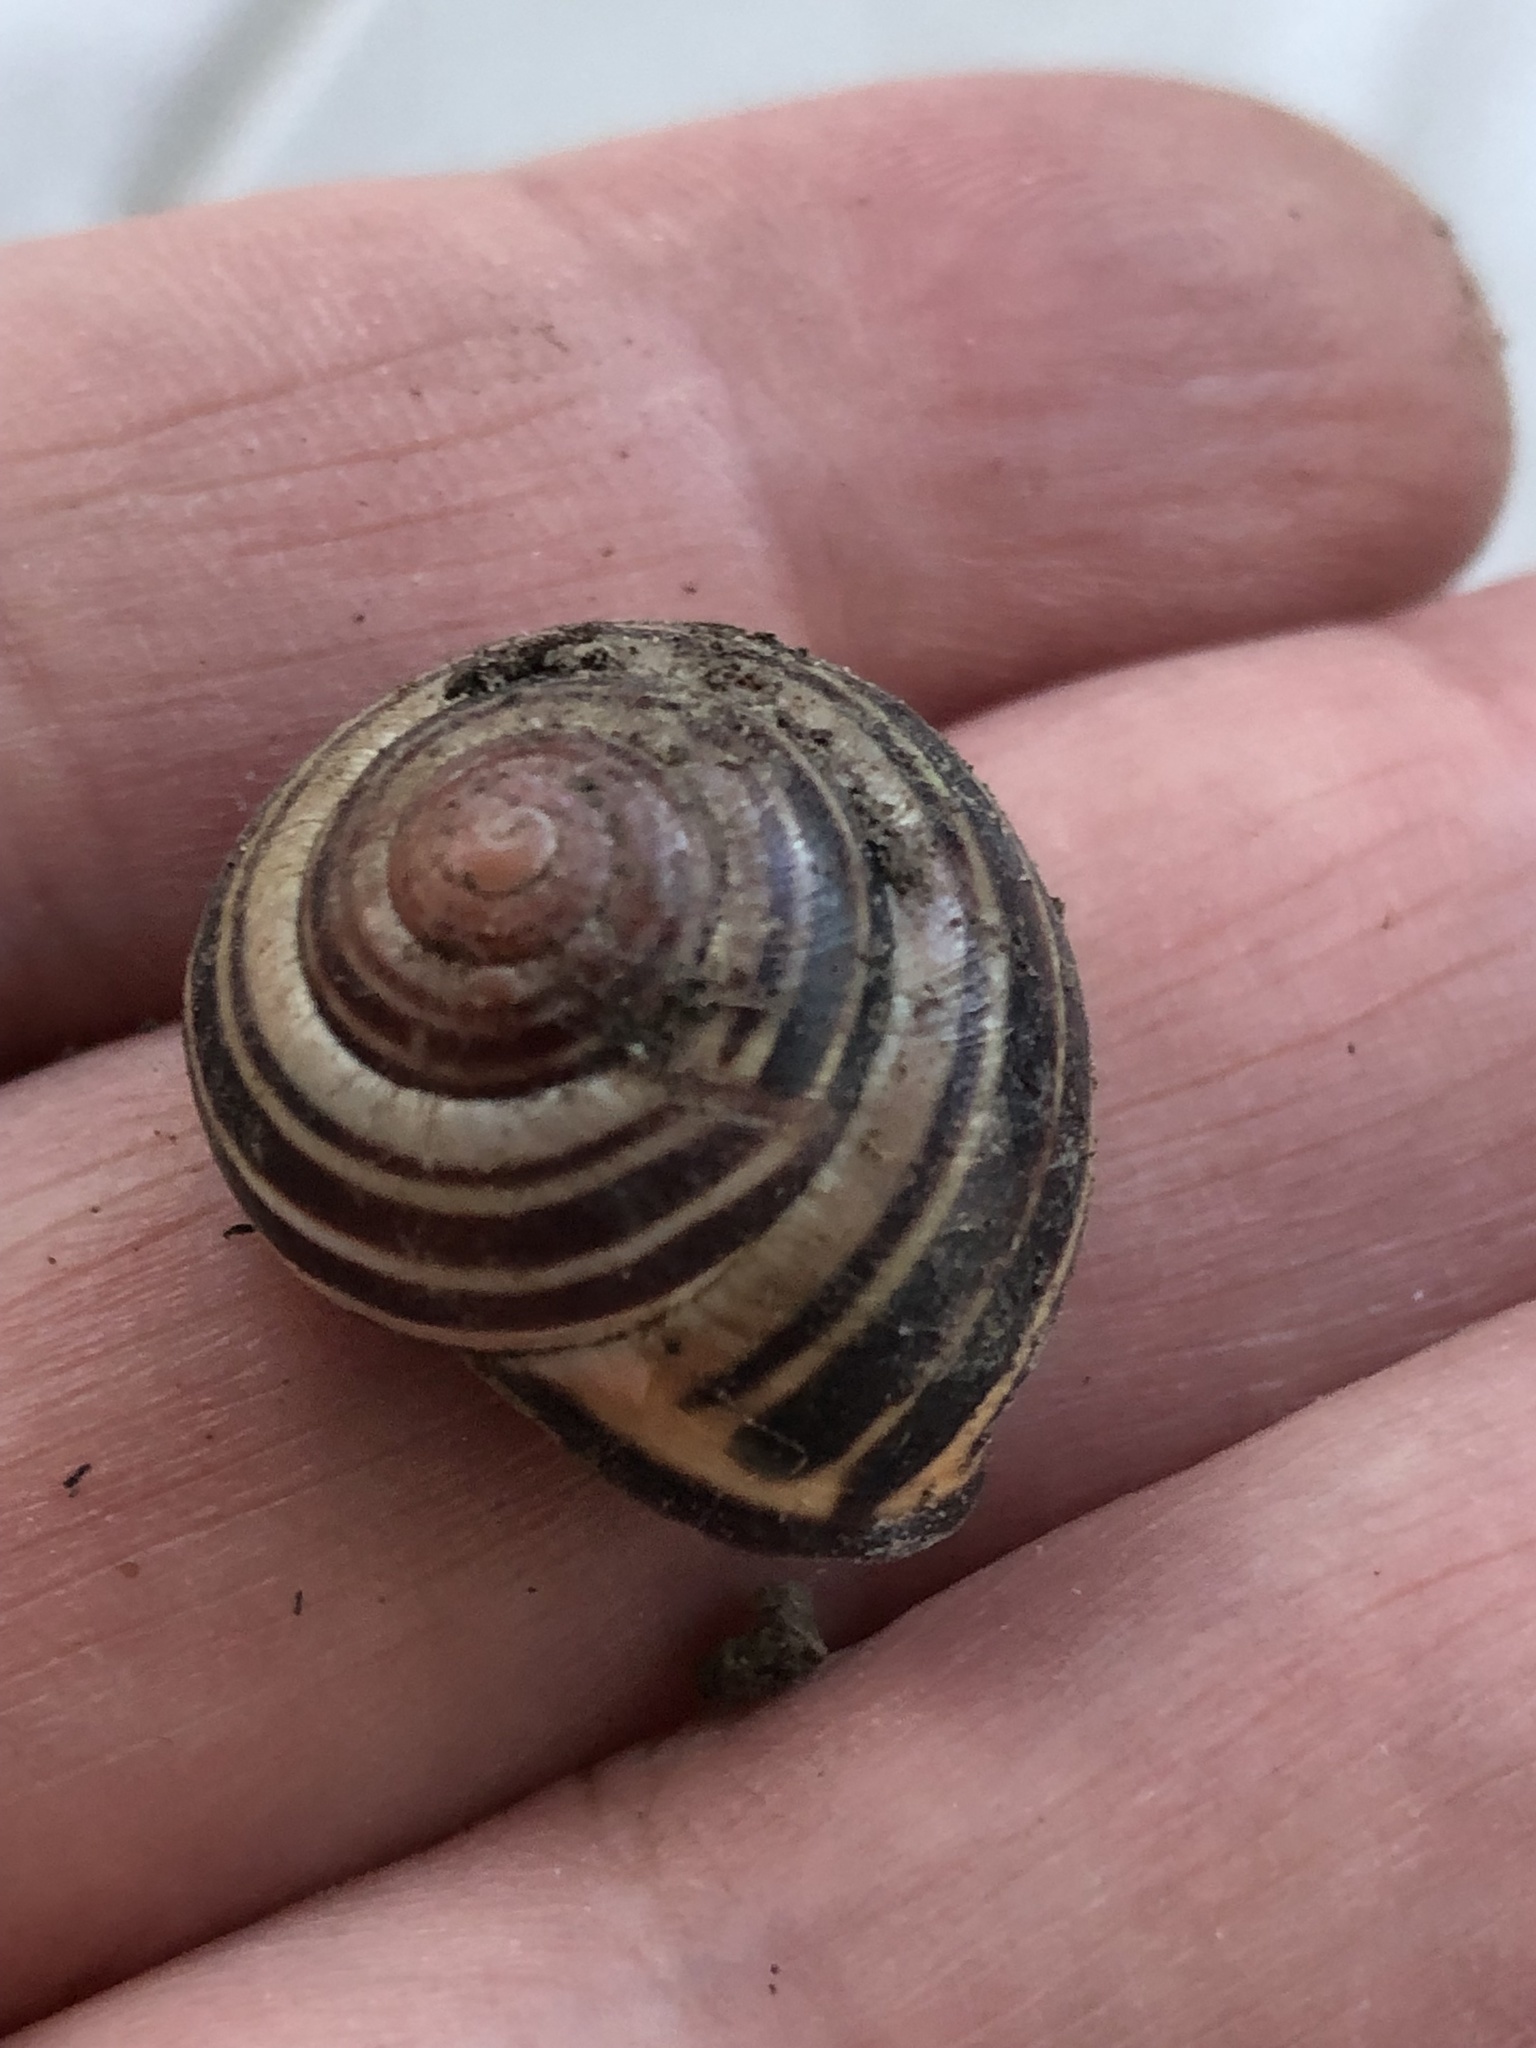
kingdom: Animalia
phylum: Mollusca
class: Gastropoda
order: Stylommatophora
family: Helicidae
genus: Cepaea
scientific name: Cepaea nemoralis
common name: Grovesnail
